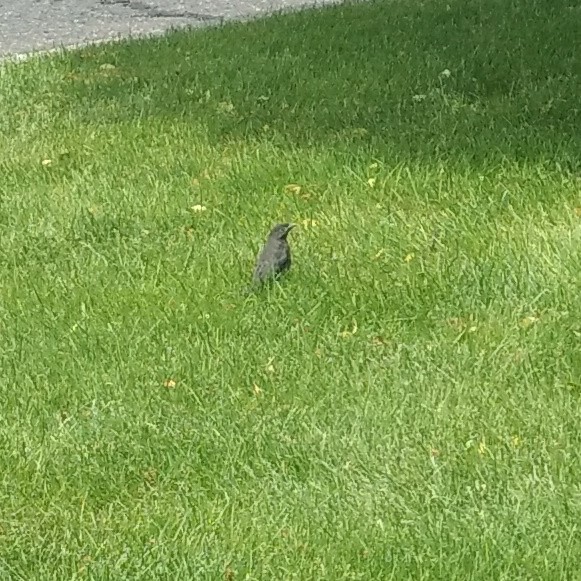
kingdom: Animalia
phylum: Chordata
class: Aves
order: Passeriformes
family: Icteridae
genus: Quiscalus
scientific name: Quiscalus quiscula
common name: Common grackle
